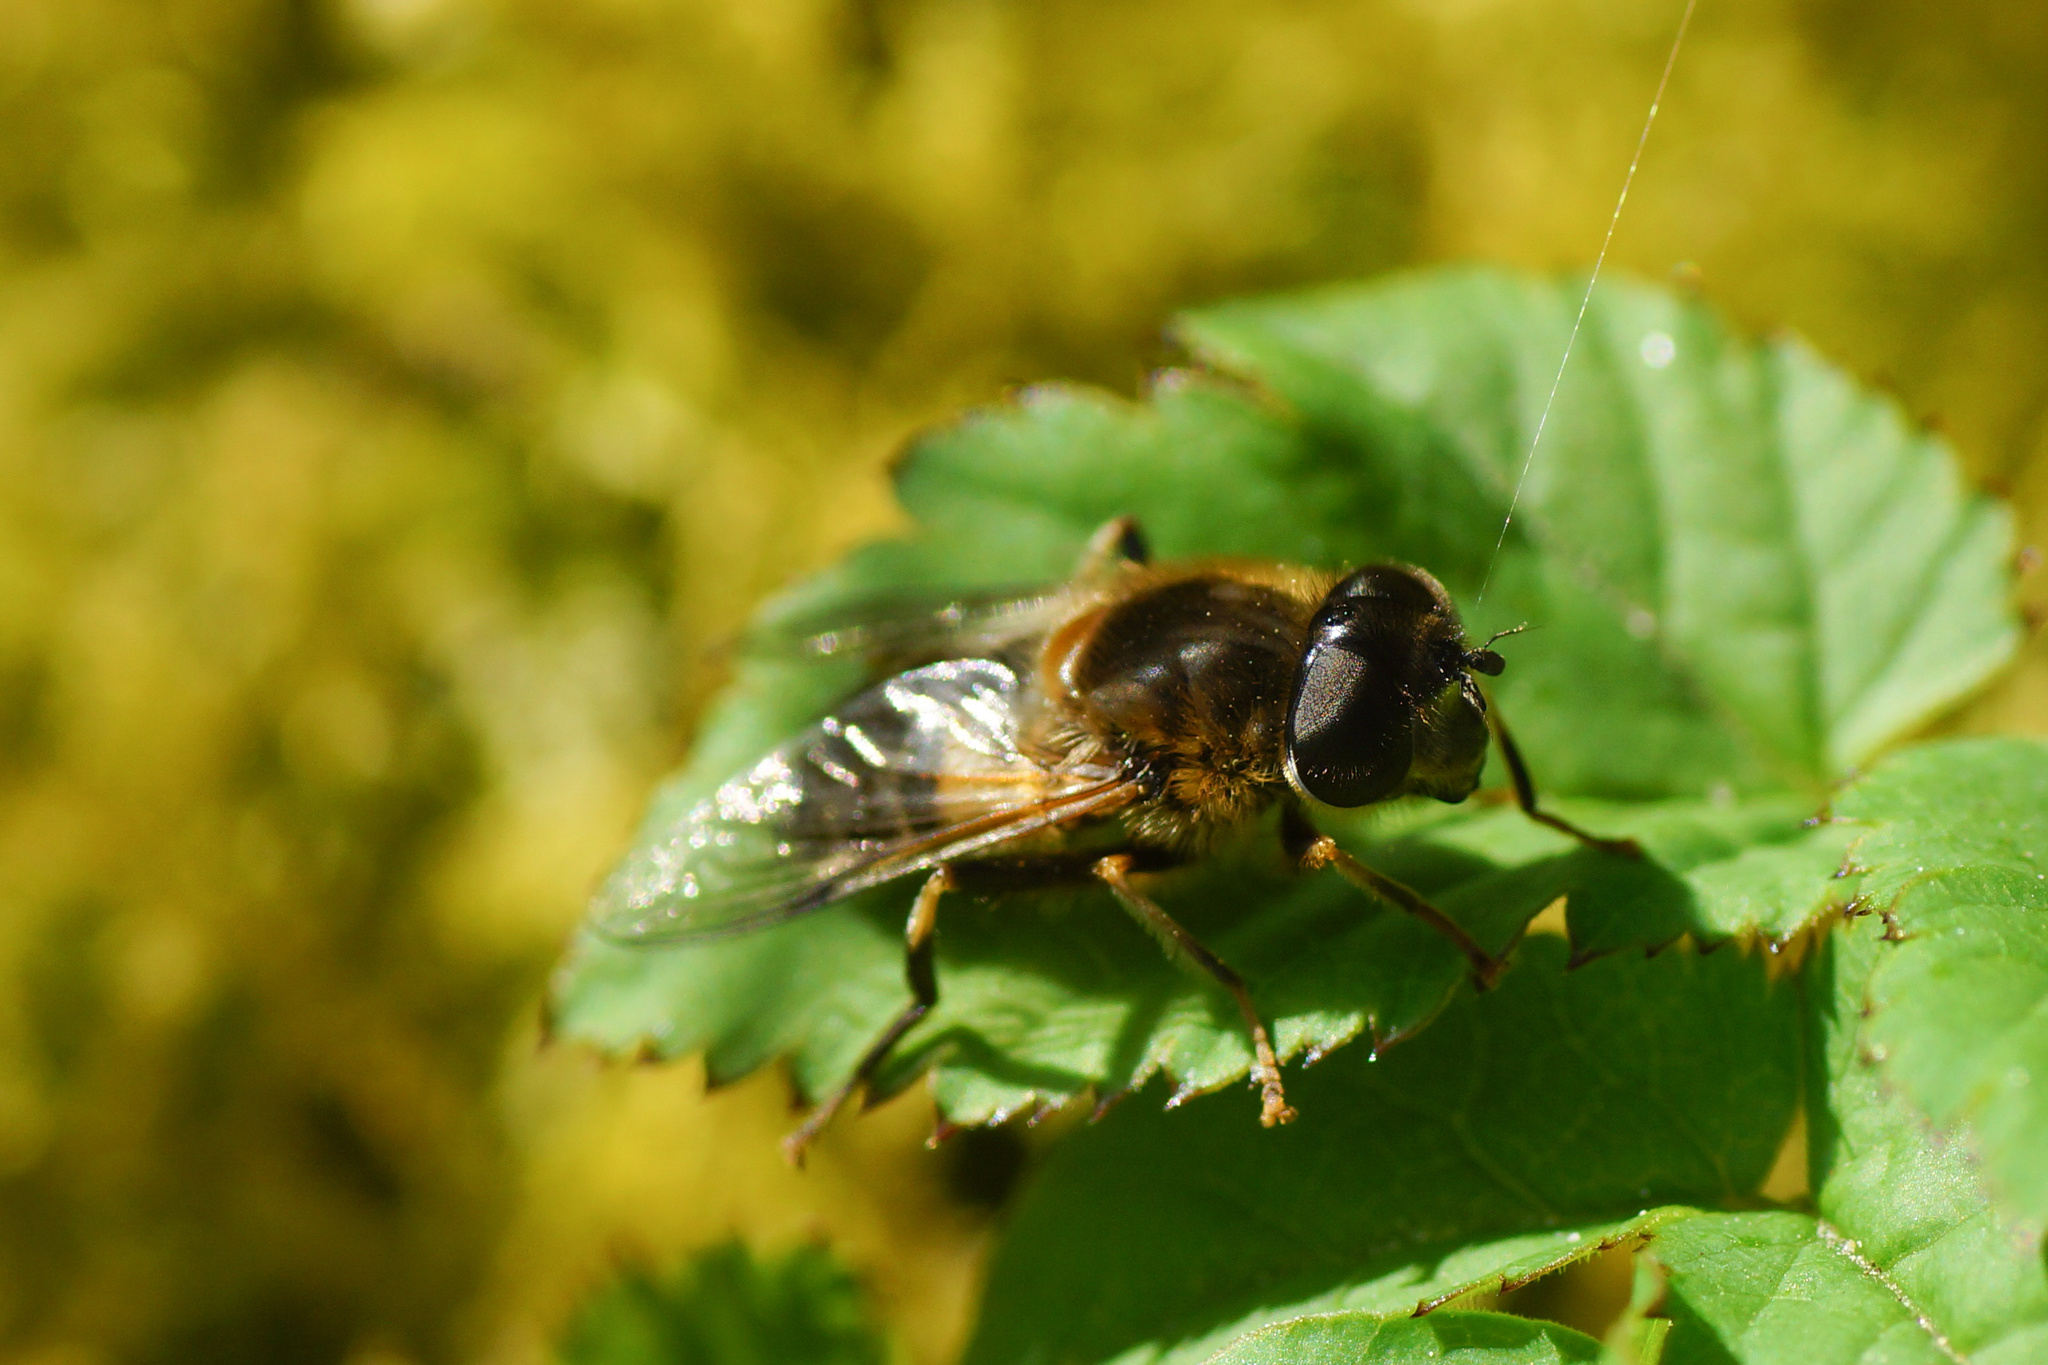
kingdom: Animalia
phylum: Arthropoda
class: Insecta
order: Diptera
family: Syrphidae
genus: Eristalis
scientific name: Eristalis pertinax
